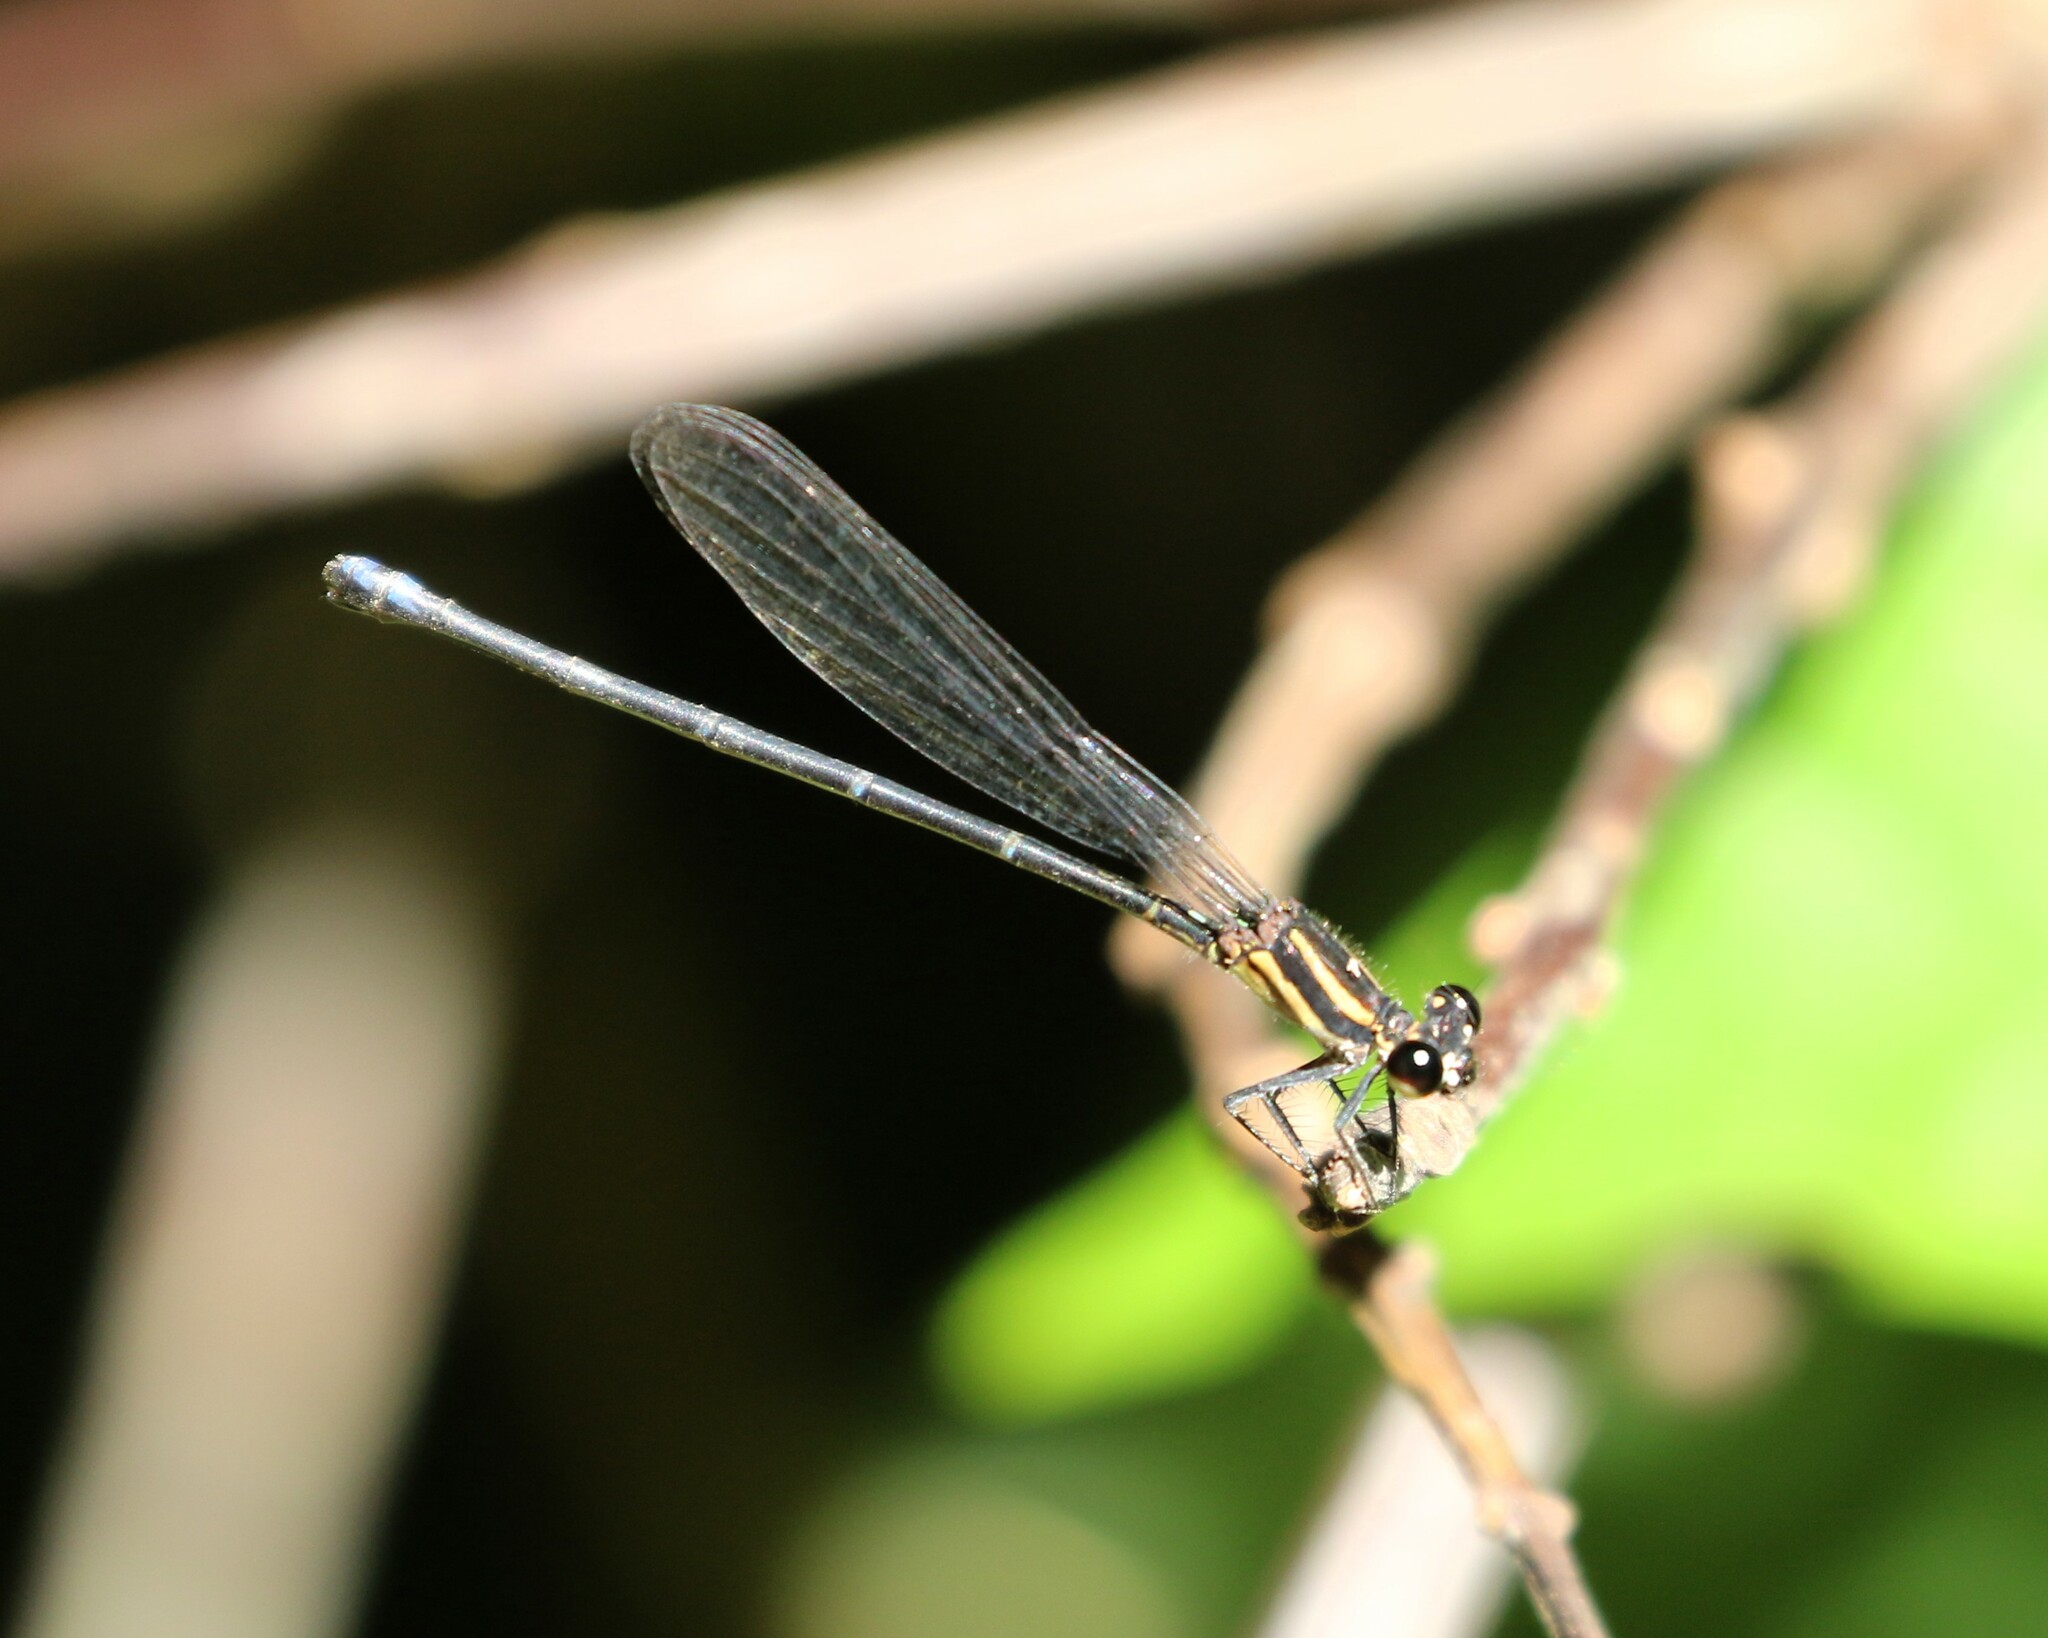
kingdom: Animalia
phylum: Arthropoda
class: Insecta
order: Odonata
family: Coenagrionidae
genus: Argia
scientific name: Argia oculata
